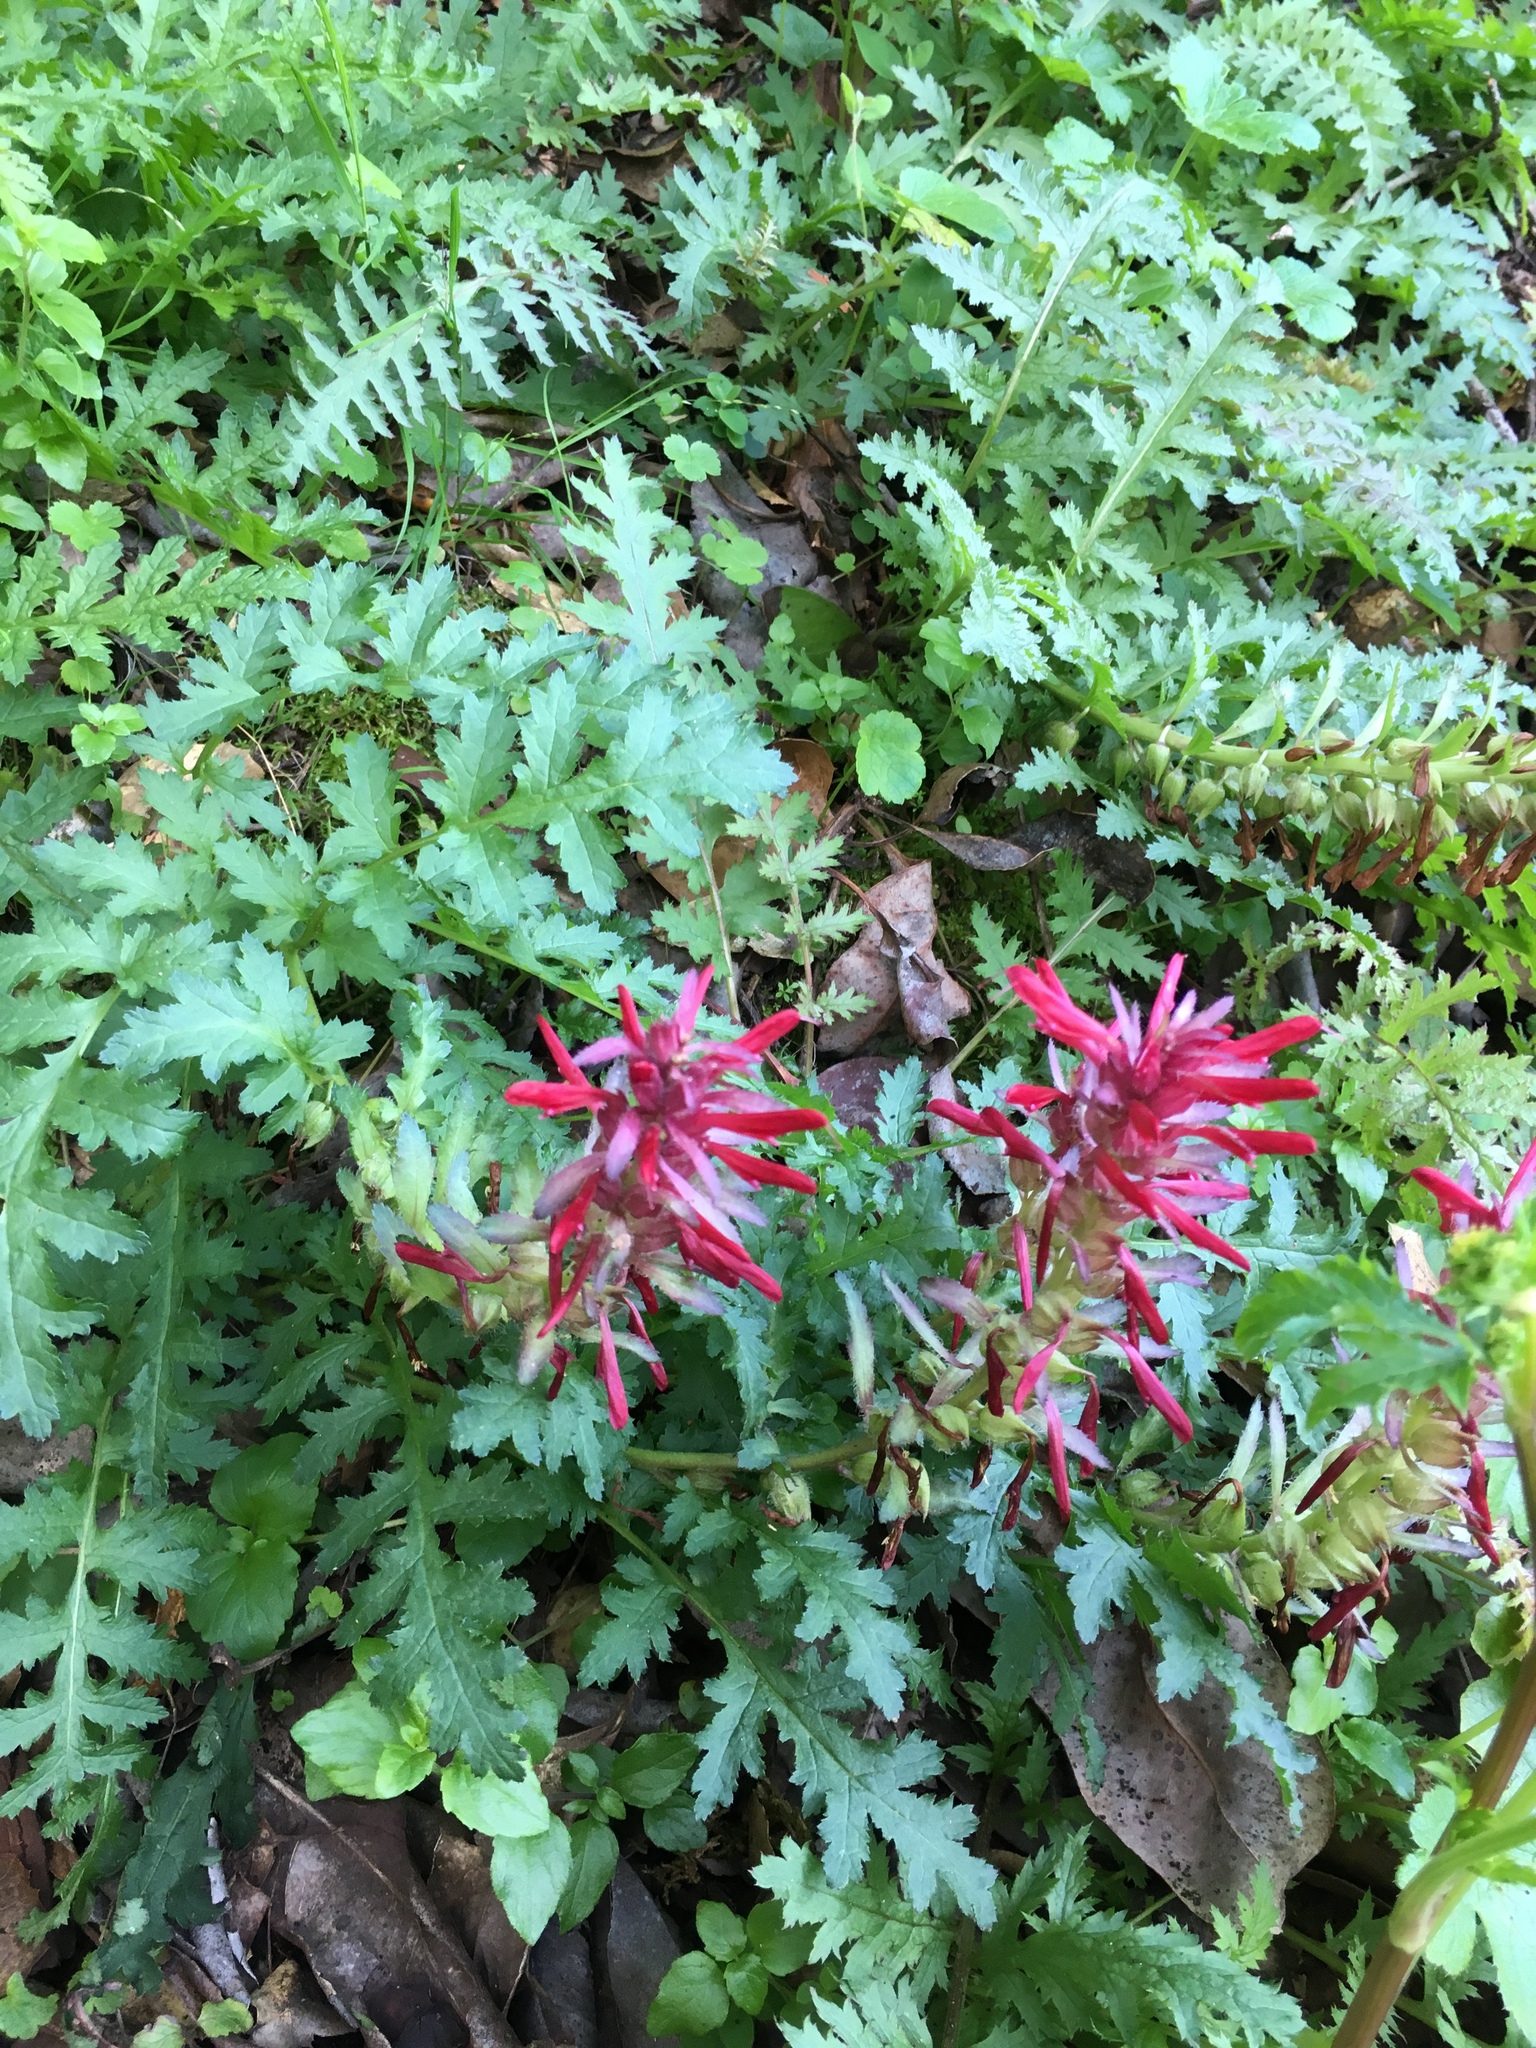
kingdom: Plantae
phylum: Tracheophyta
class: Magnoliopsida
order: Lamiales
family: Orobanchaceae
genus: Pedicularis
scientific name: Pedicularis densiflora
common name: Indian warrior
